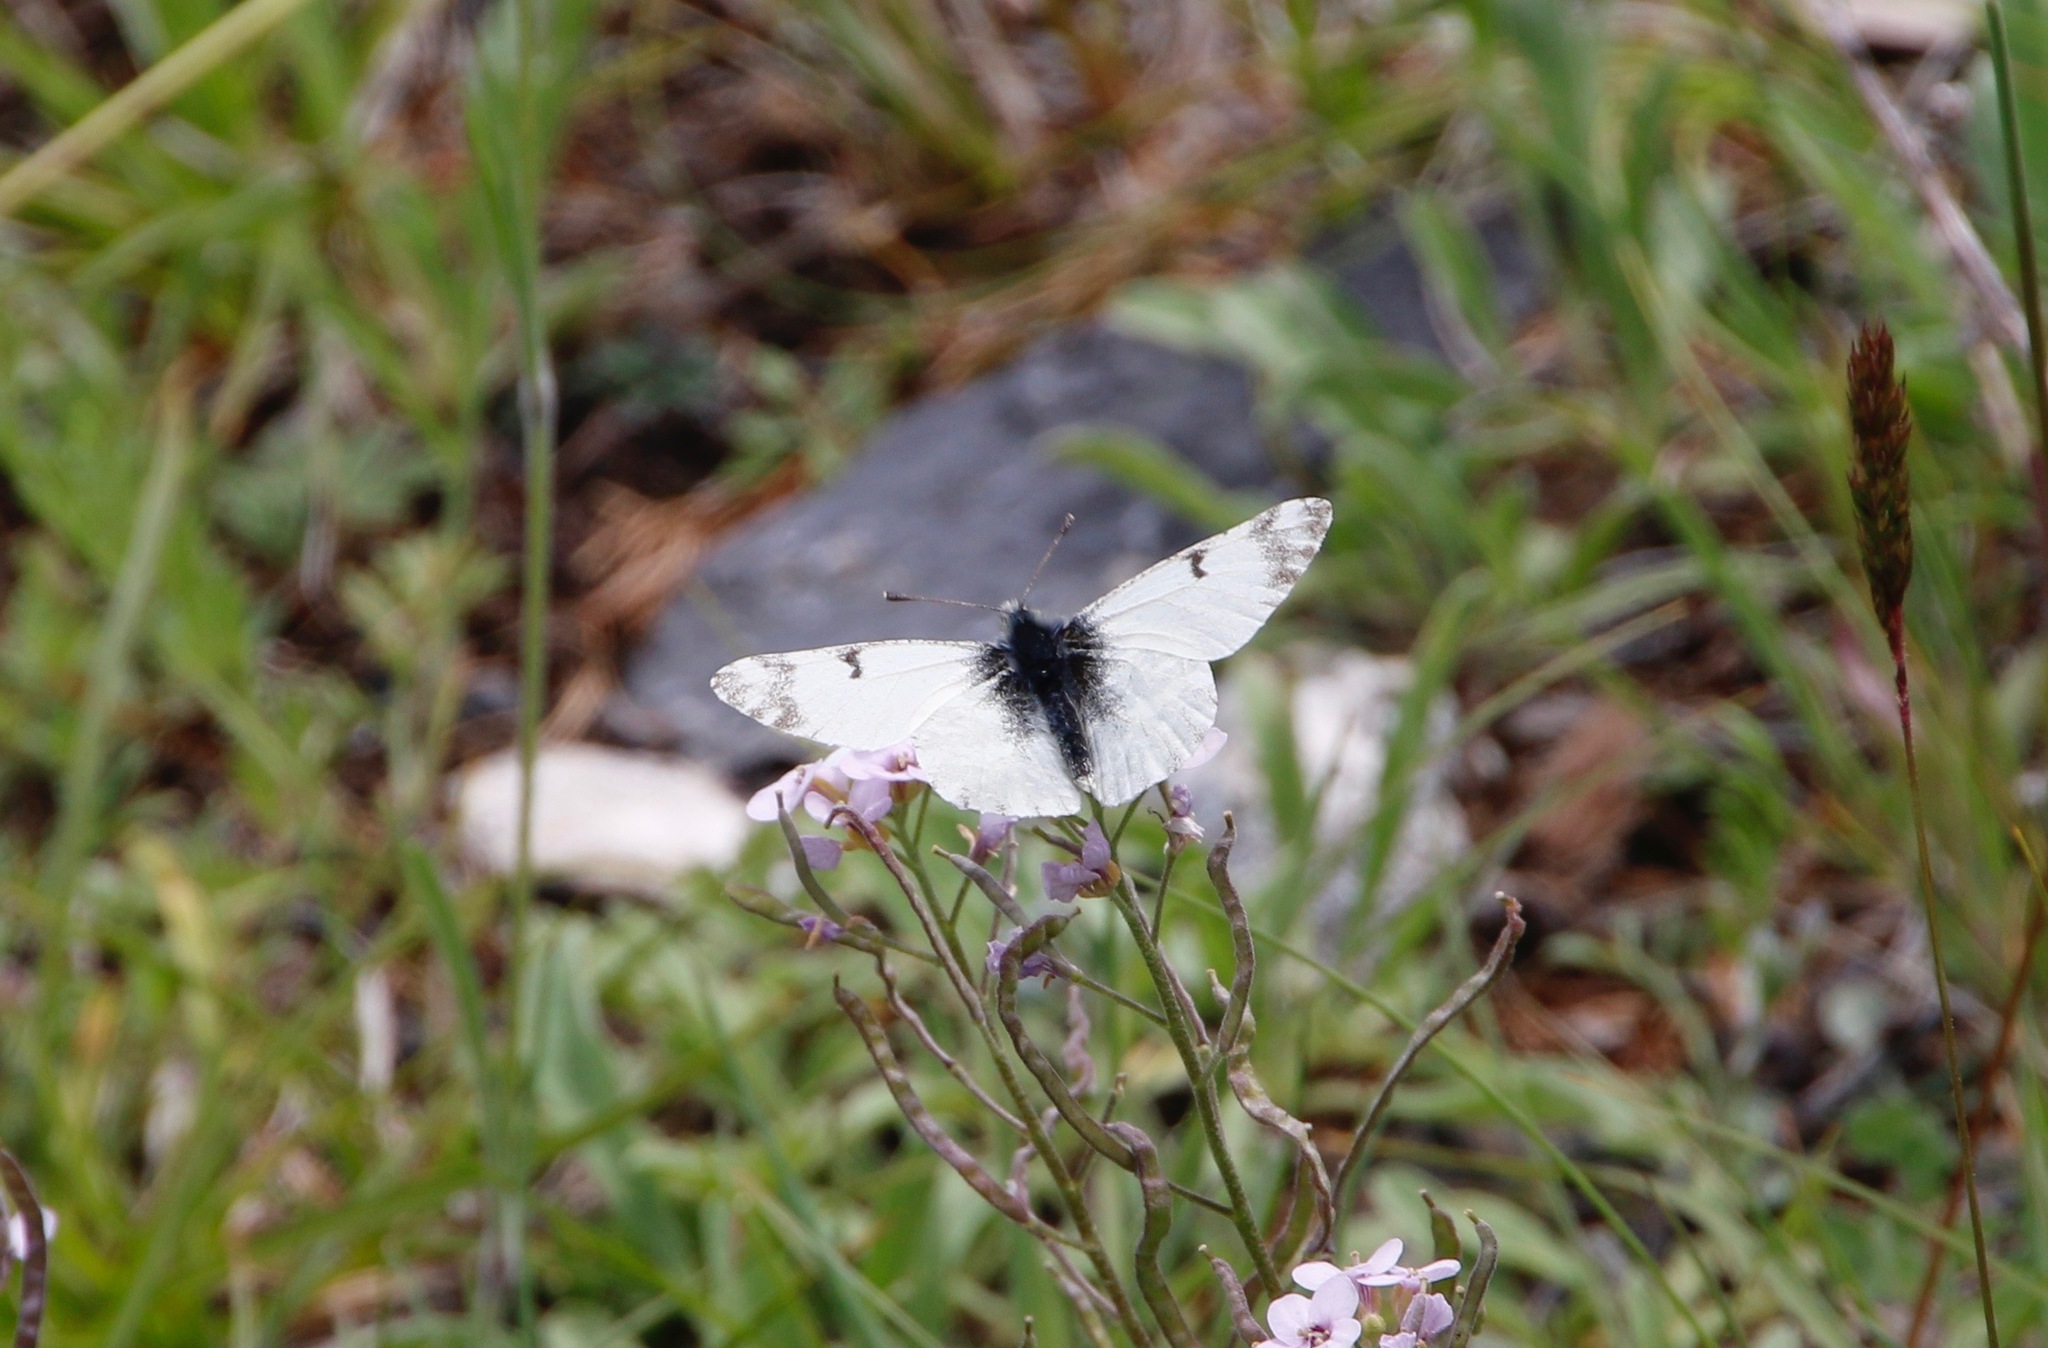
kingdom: Animalia
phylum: Arthropoda
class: Insecta
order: Lepidoptera
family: Pieridae
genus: Euchloe
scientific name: Euchloe creusa
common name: Northern marblewing
